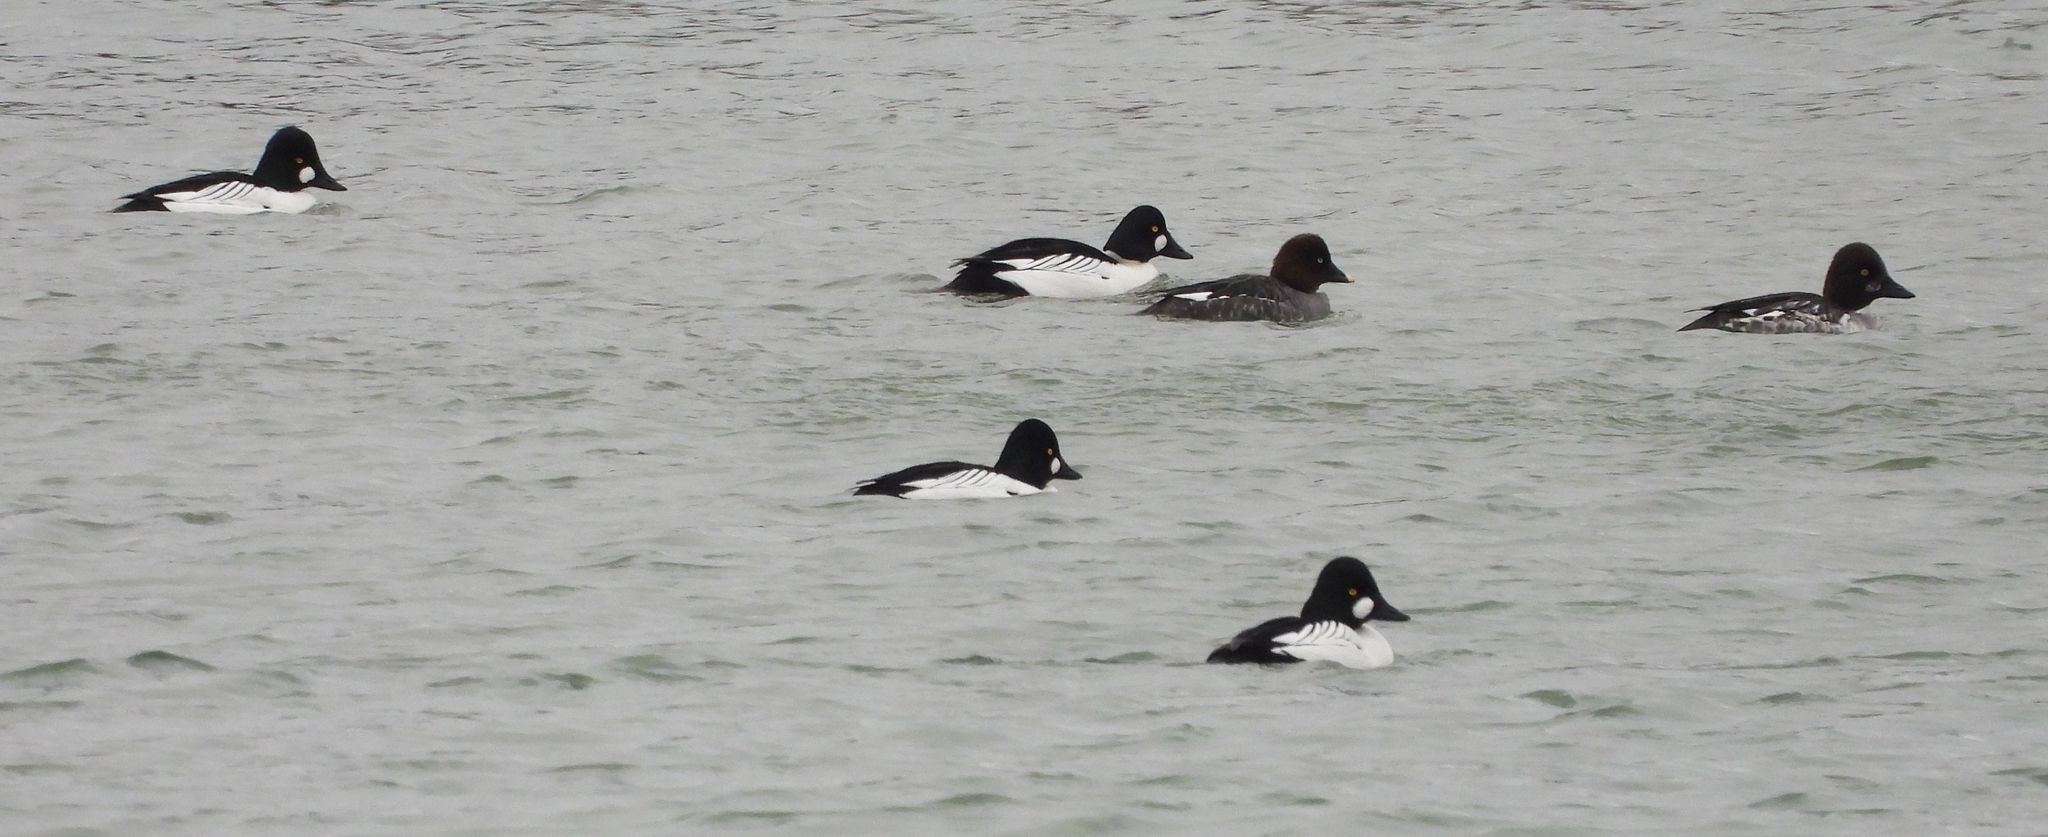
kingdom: Animalia
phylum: Chordata
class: Aves
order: Anseriformes
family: Anatidae
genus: Bucephala
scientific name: Bucephala clangula
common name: Common goldeneye
